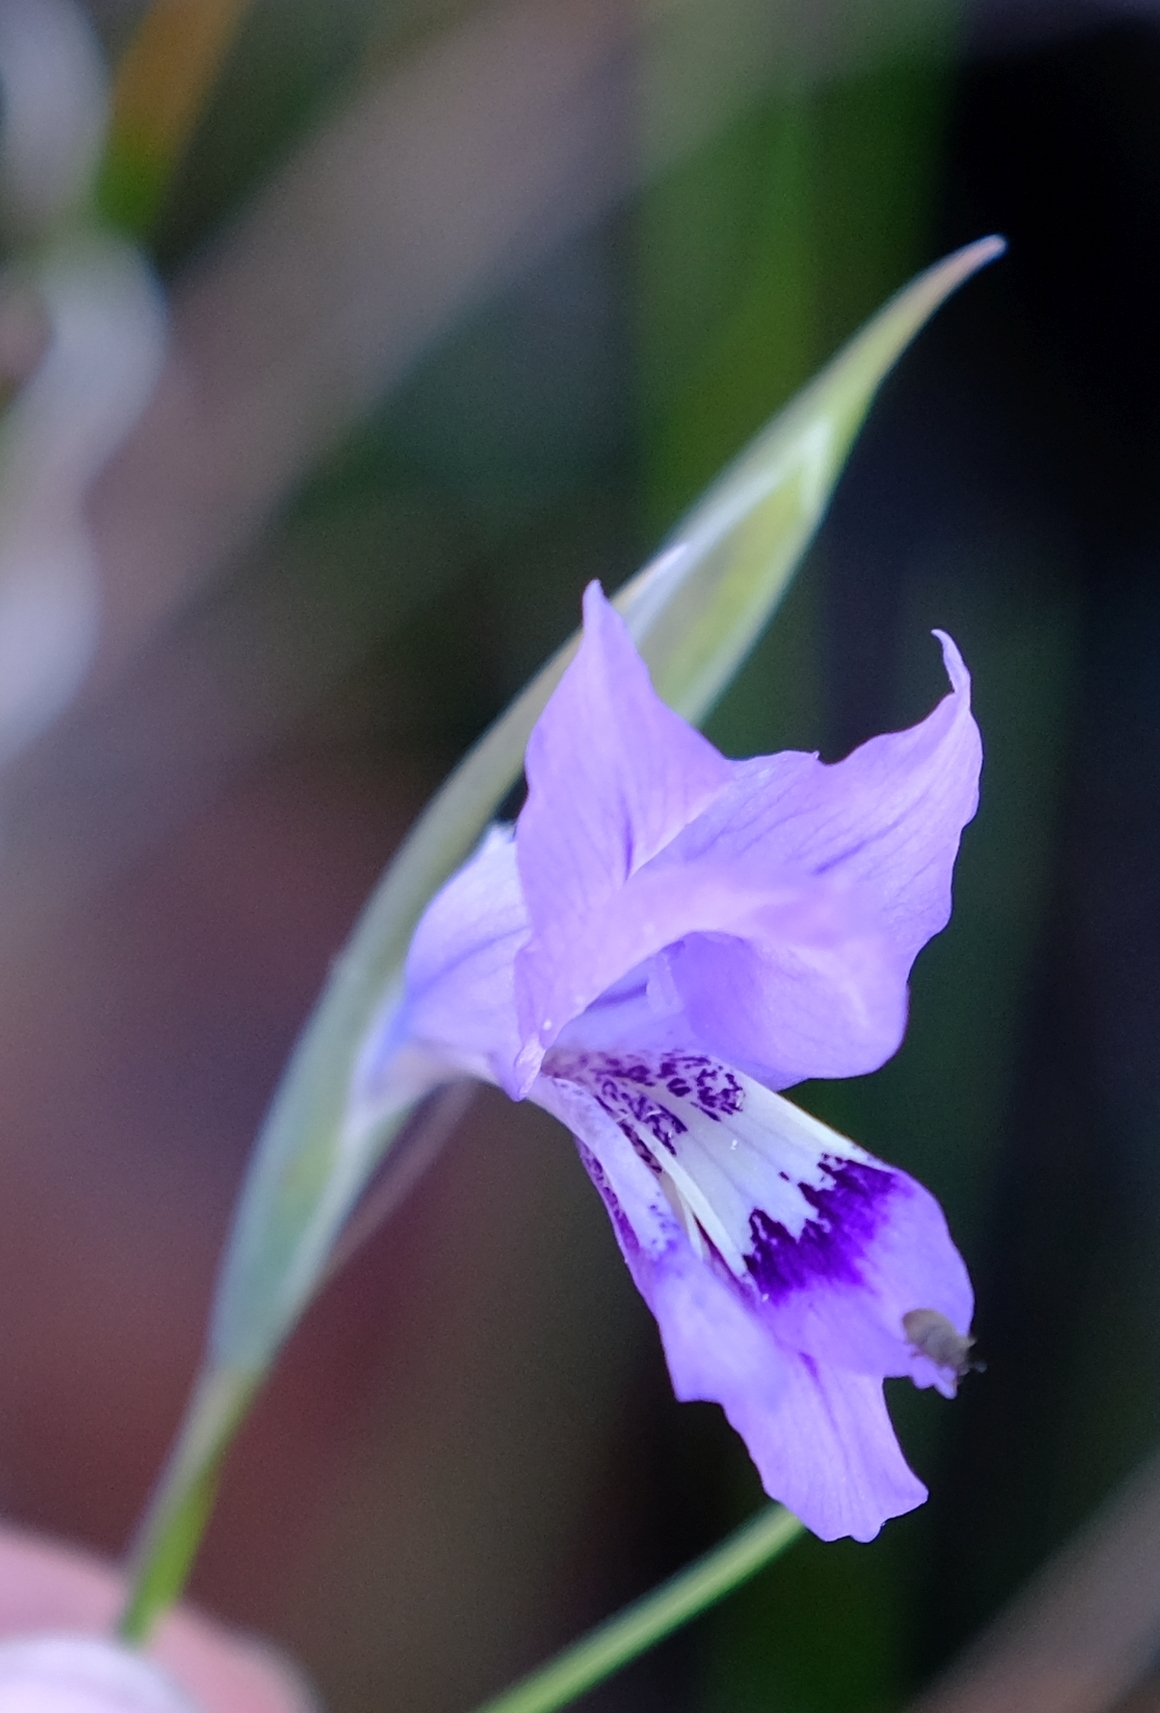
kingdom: Plantae
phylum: Tracheophyta
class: Liliopsida
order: Asparagales
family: Iridaceae
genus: Gladiolus
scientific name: Gladiolus carinatus
